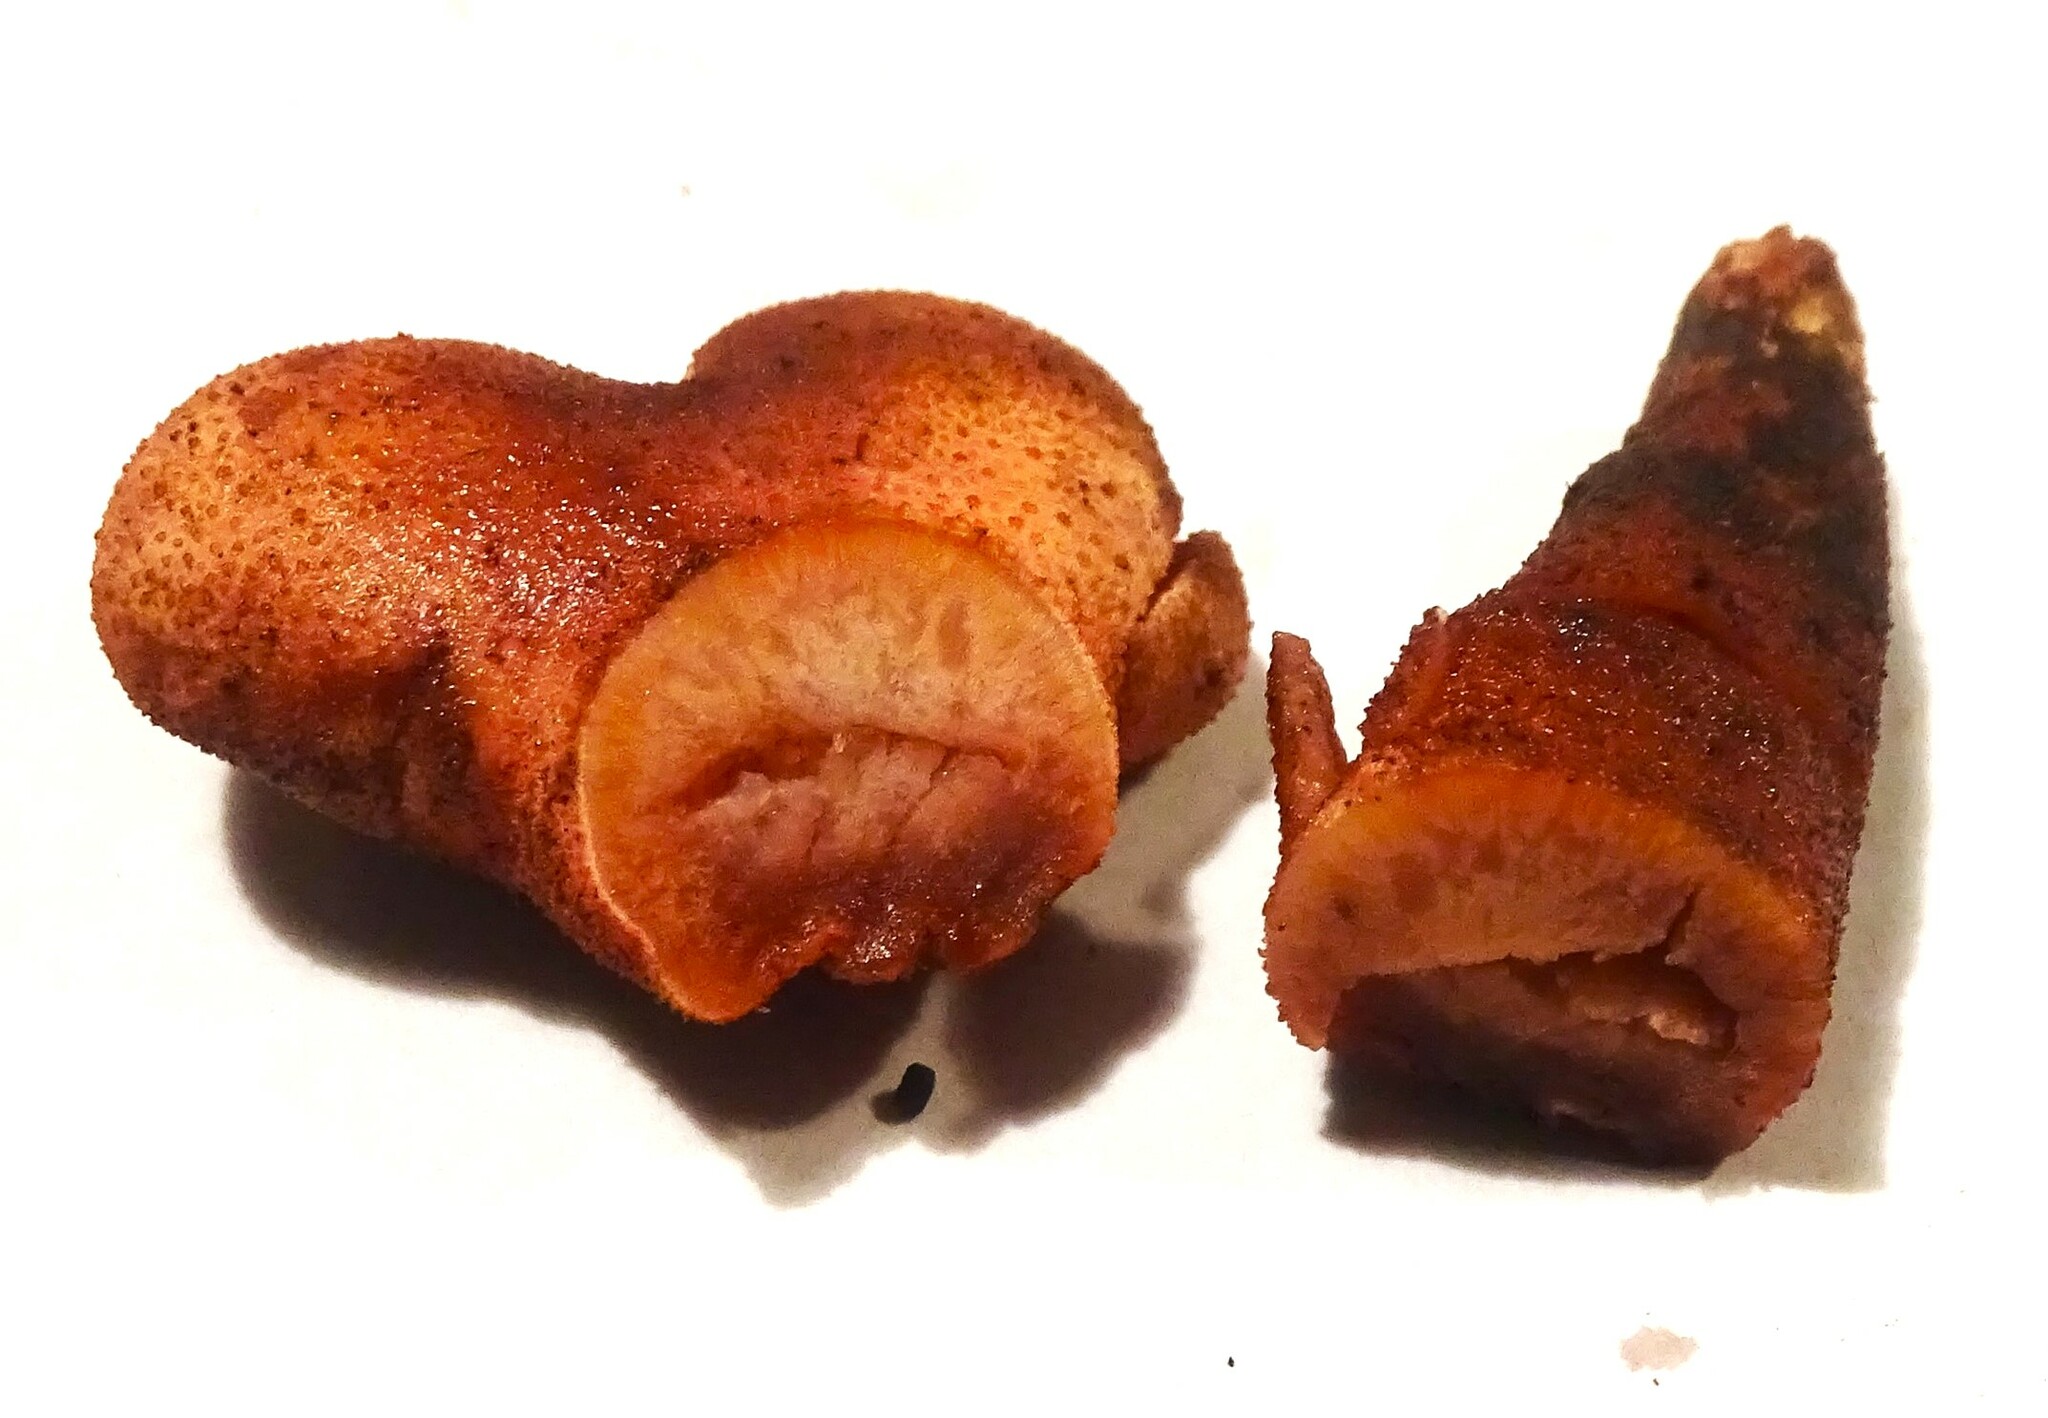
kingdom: Fungi
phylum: Basidiomycota
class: Agaricomycetes
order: Agaricales
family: Fistulinaceae
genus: Fistulina
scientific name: Fistulina hepatica
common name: Beef-steak fungus
